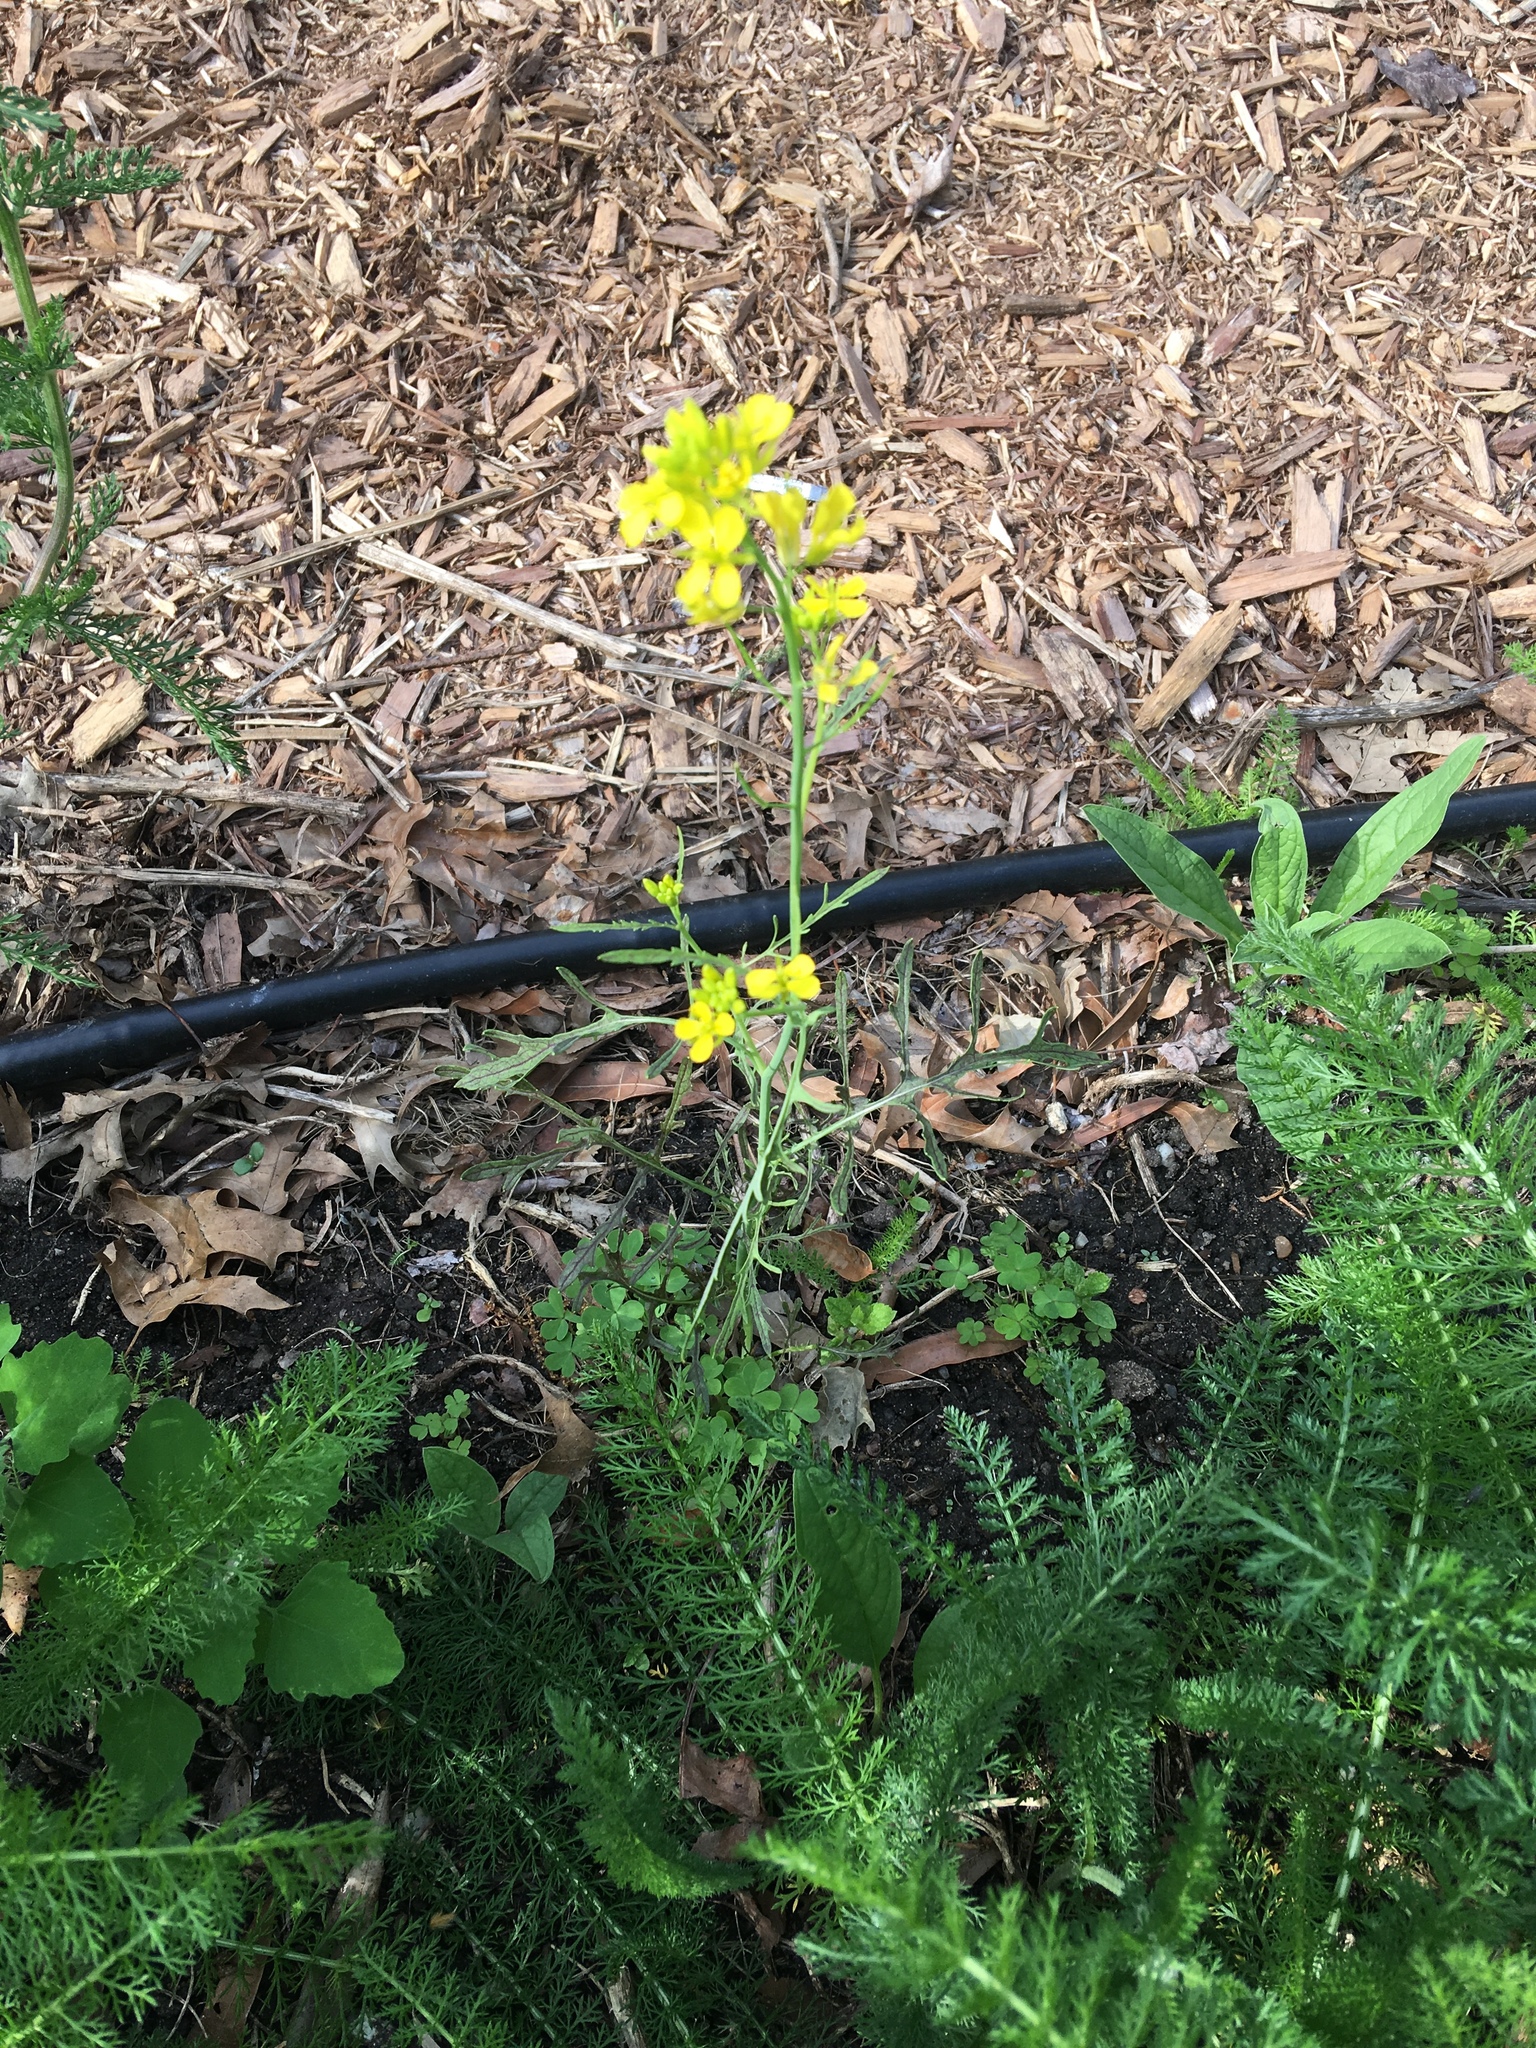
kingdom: Plantae
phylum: Tracheophyta
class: Magnoliopsida
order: Brassicales
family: Brassicaceae
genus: Diplotaxis
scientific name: Diplotaxis tenuifolia
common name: Perennial wall-rocket
